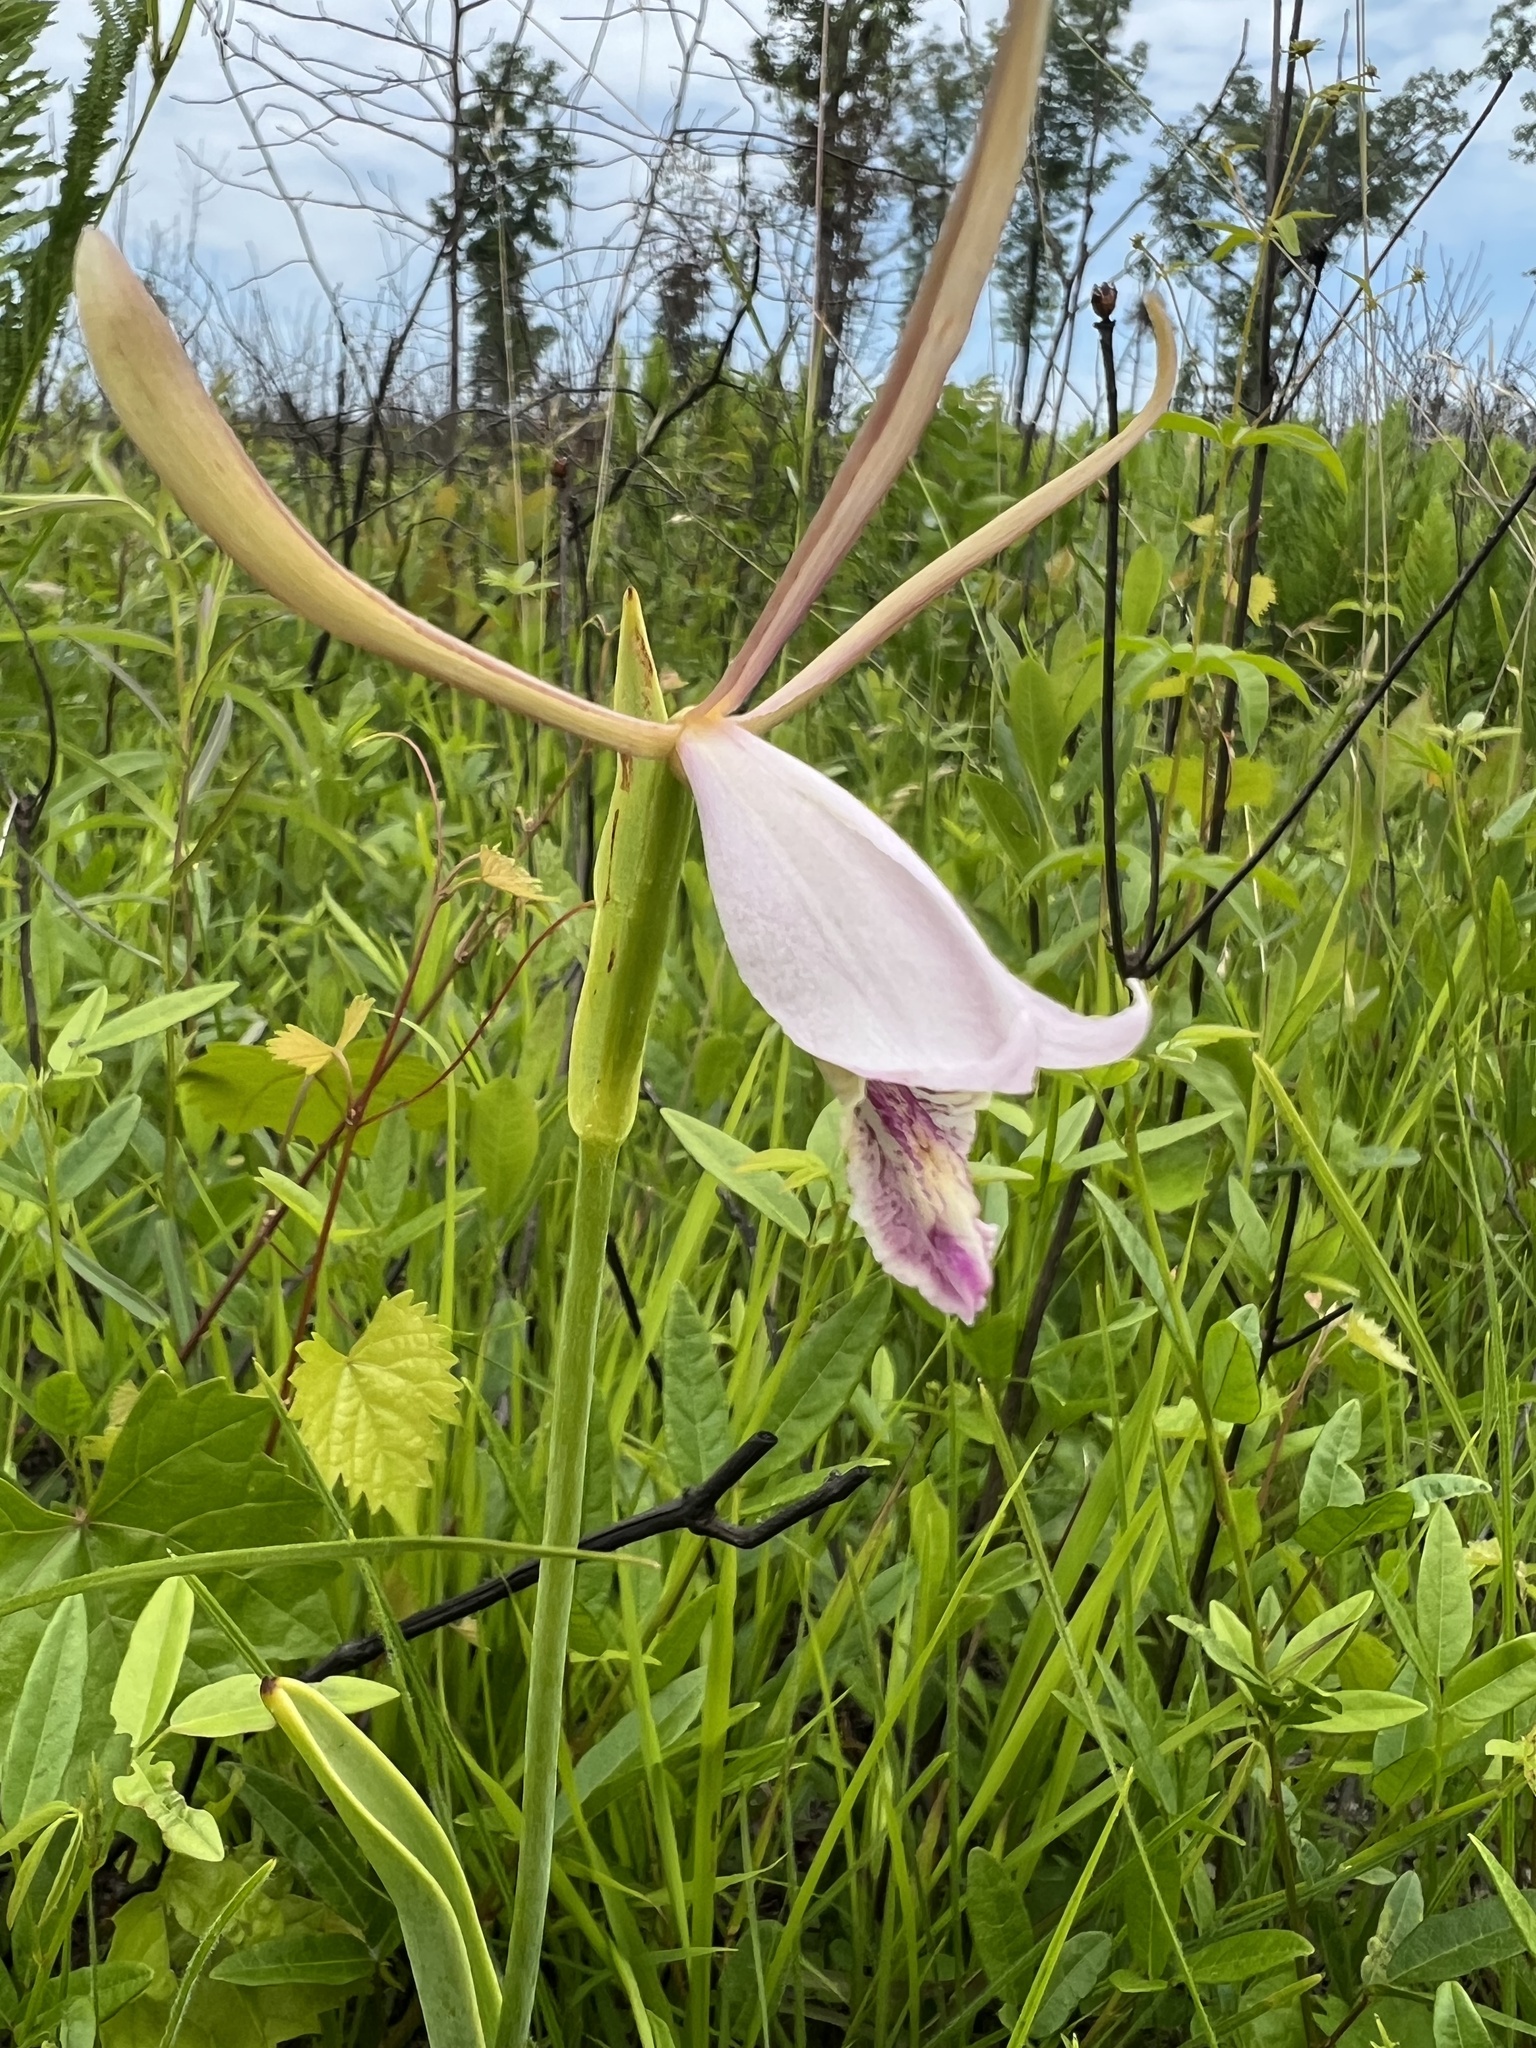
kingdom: Plantae
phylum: Tracheophyta
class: Liliopsida
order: Asparagales
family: Orchidaceae
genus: Cleistesiopsis
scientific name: Cleistesiopsis bifaria
